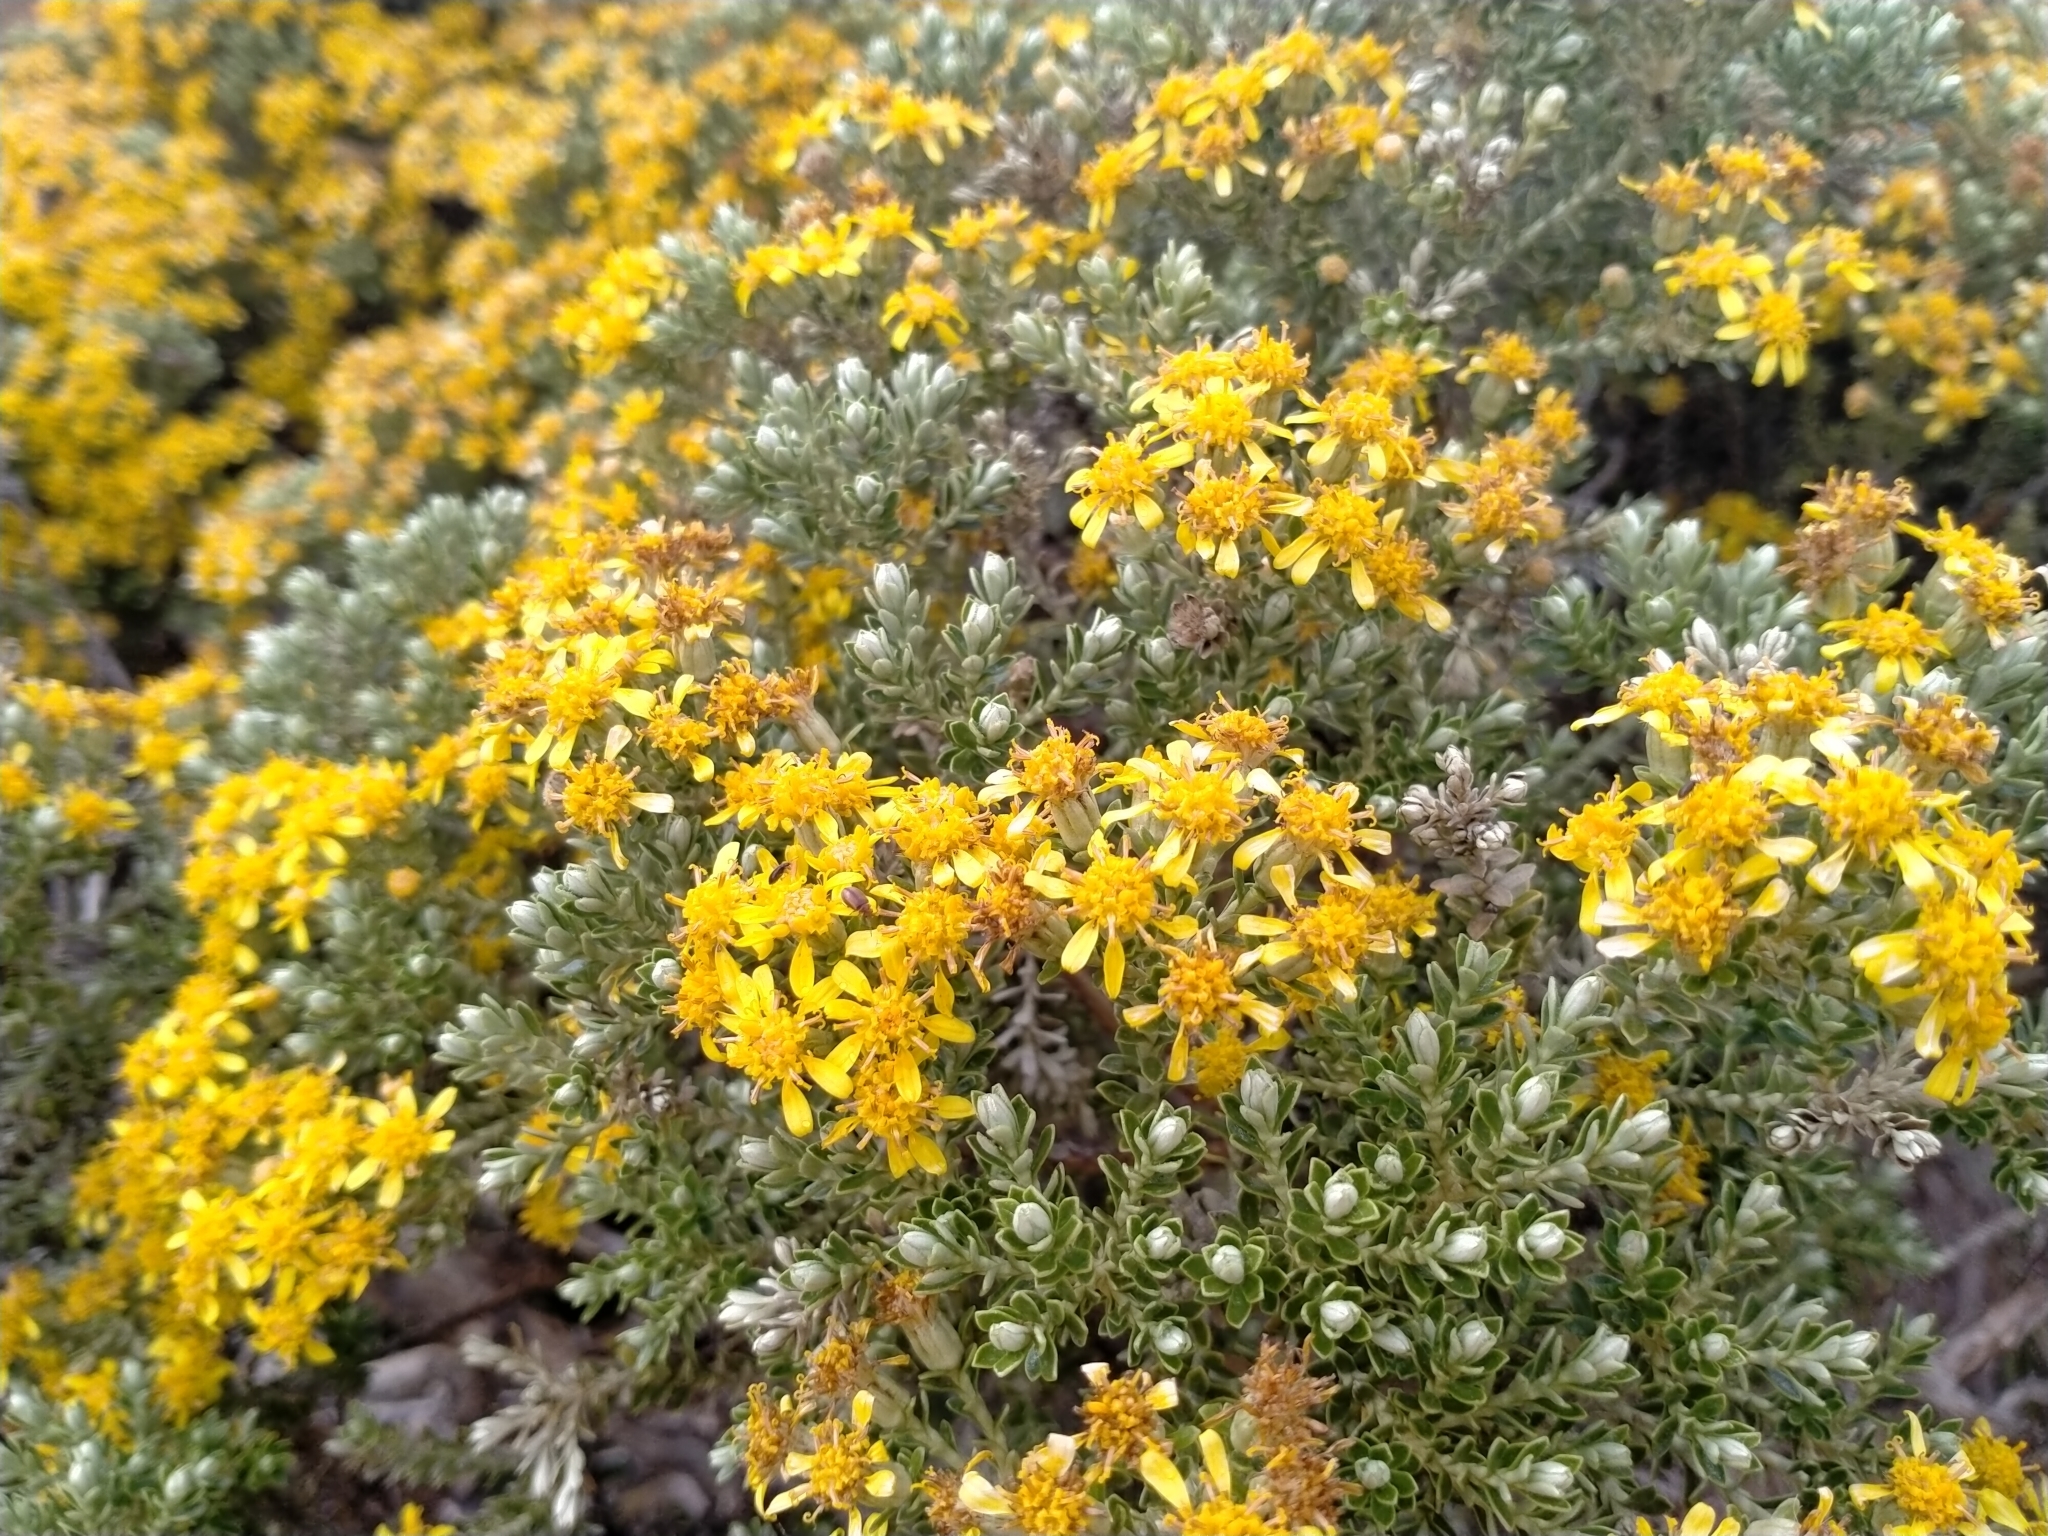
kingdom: Plantae
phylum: Tracheophyta
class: Magnoliopsida
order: Asterales
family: Asteraceae
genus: Brachyglottis
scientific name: Brachyglottis cassinioides
